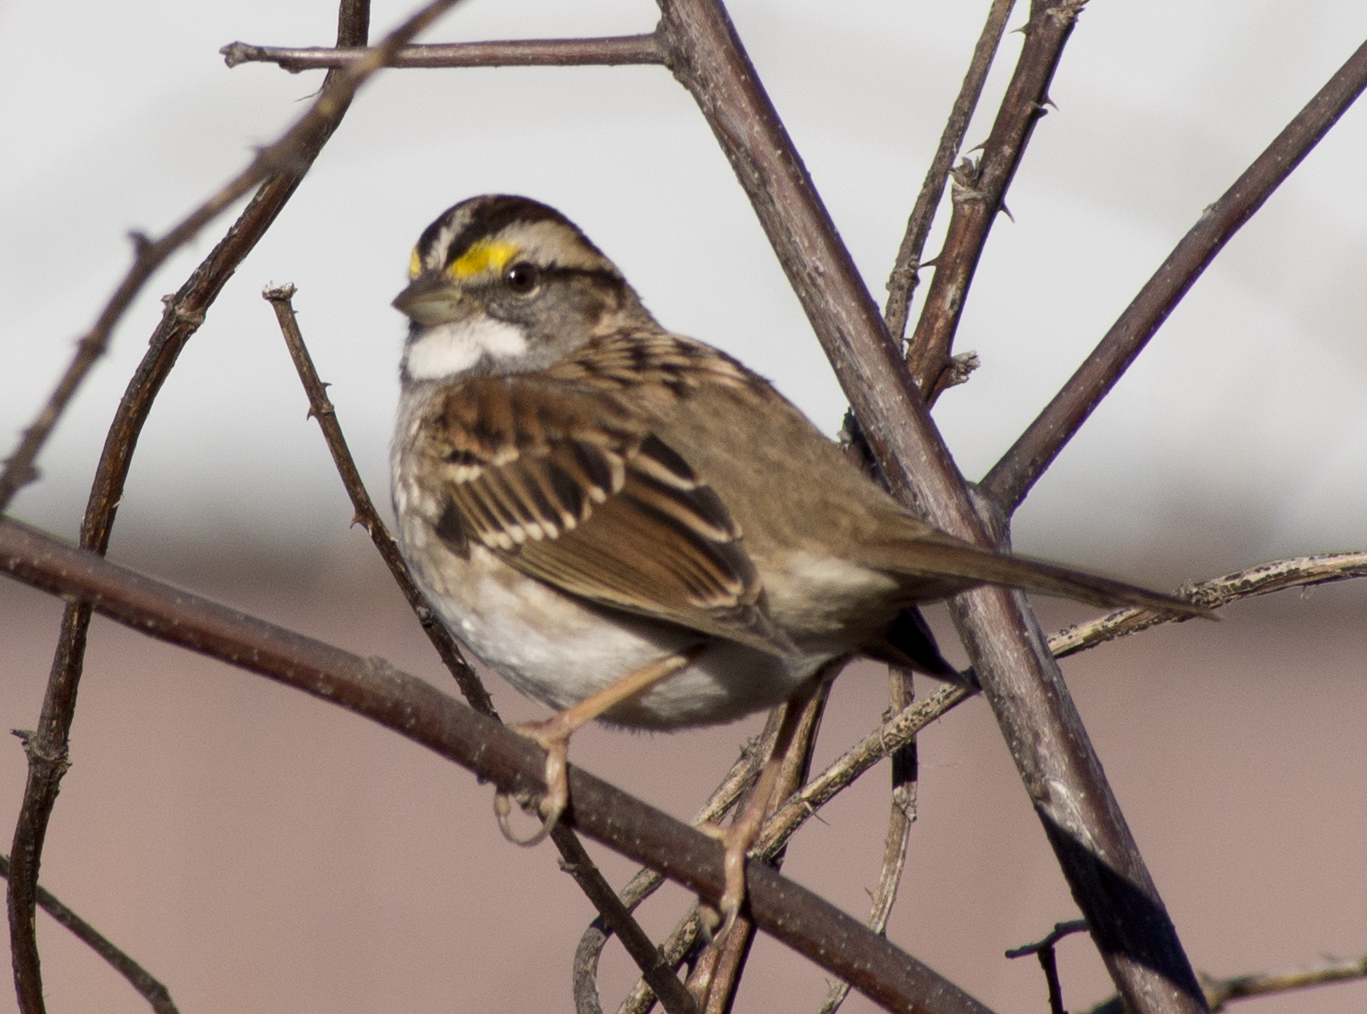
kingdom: Animalia
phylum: Chordata
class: Aves
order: Passeriformes
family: Passerellidae
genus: Zonotrichia
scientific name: Zonotrichia albicollis
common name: White-throated sparrow
